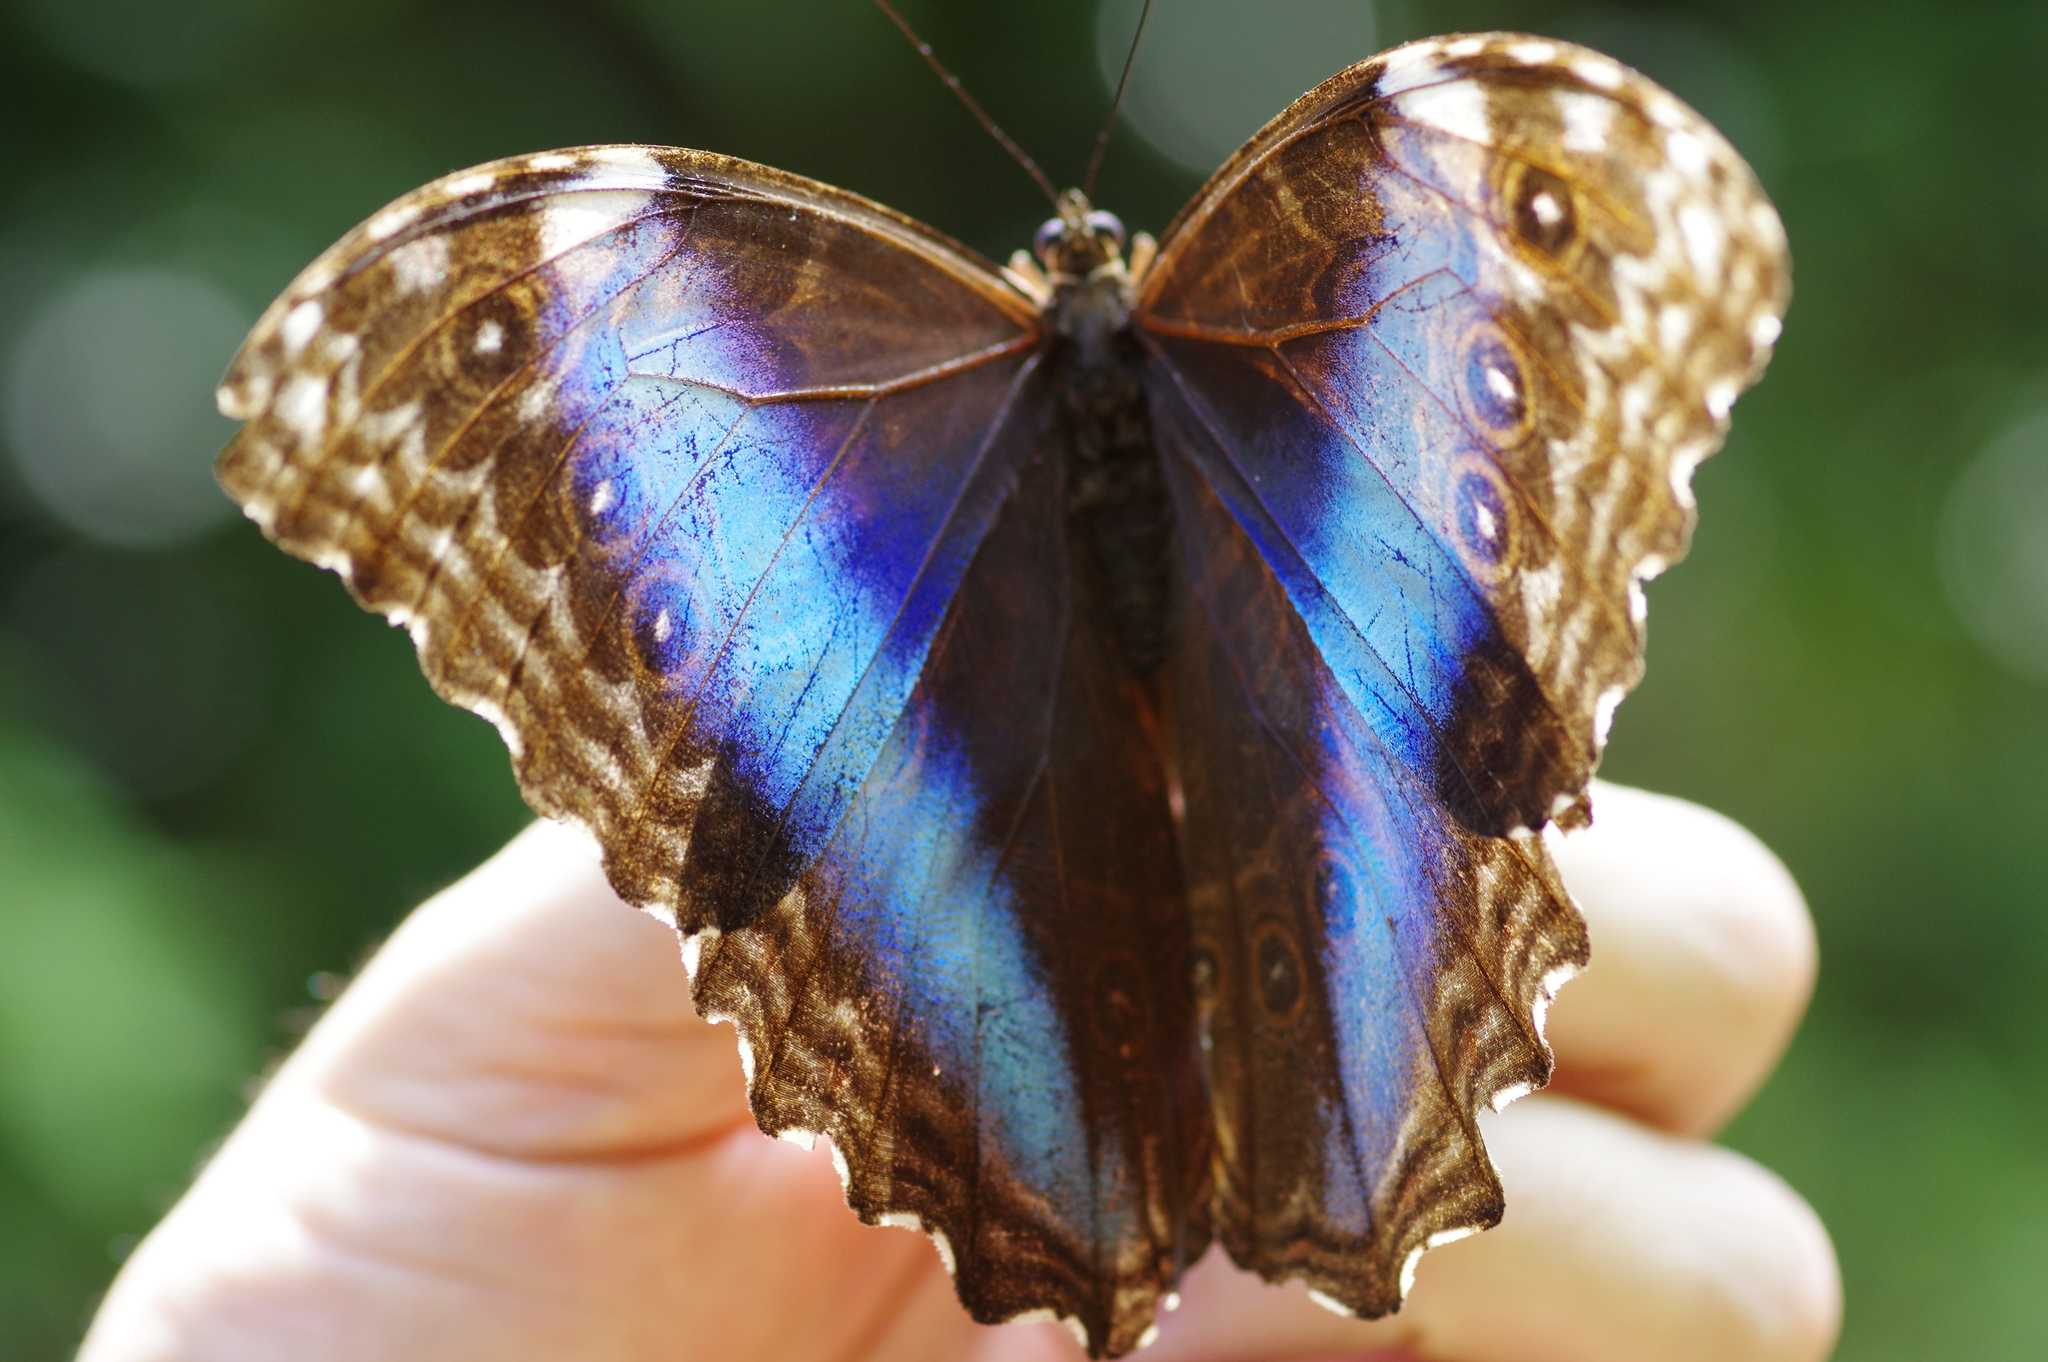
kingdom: Animalia
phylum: Arthropoda
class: Insecta
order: Lepidoptera
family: Nymphalidae
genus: Morpho
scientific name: Morpho deidamia
